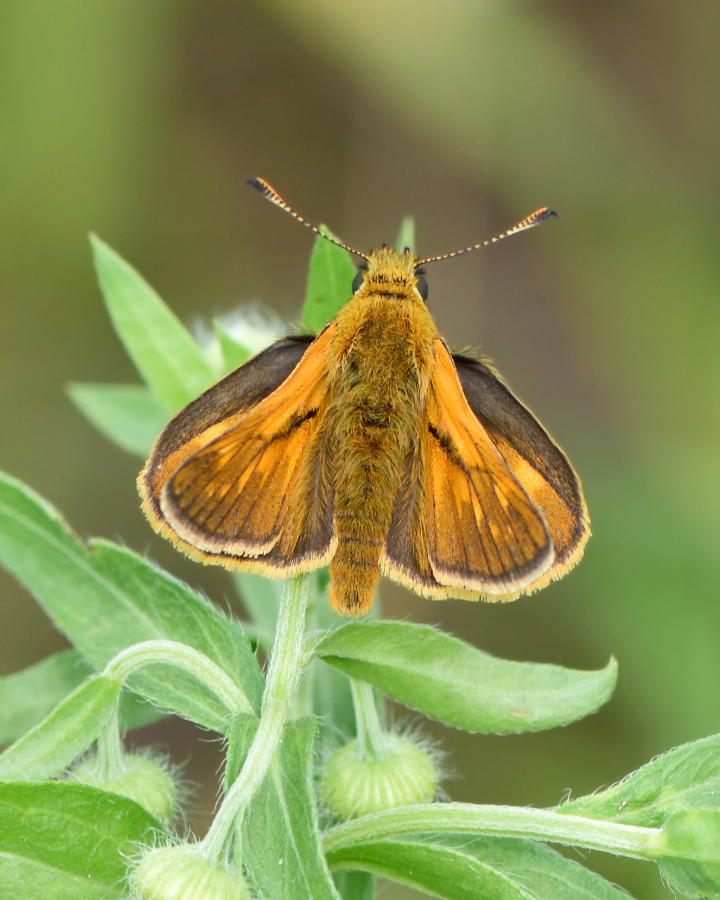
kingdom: Animalia
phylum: Arthropoda
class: Insecta
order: Lepidoptera
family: Hesperiidae
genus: Ochlodes
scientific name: Ochlodes venata
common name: Large skipper
